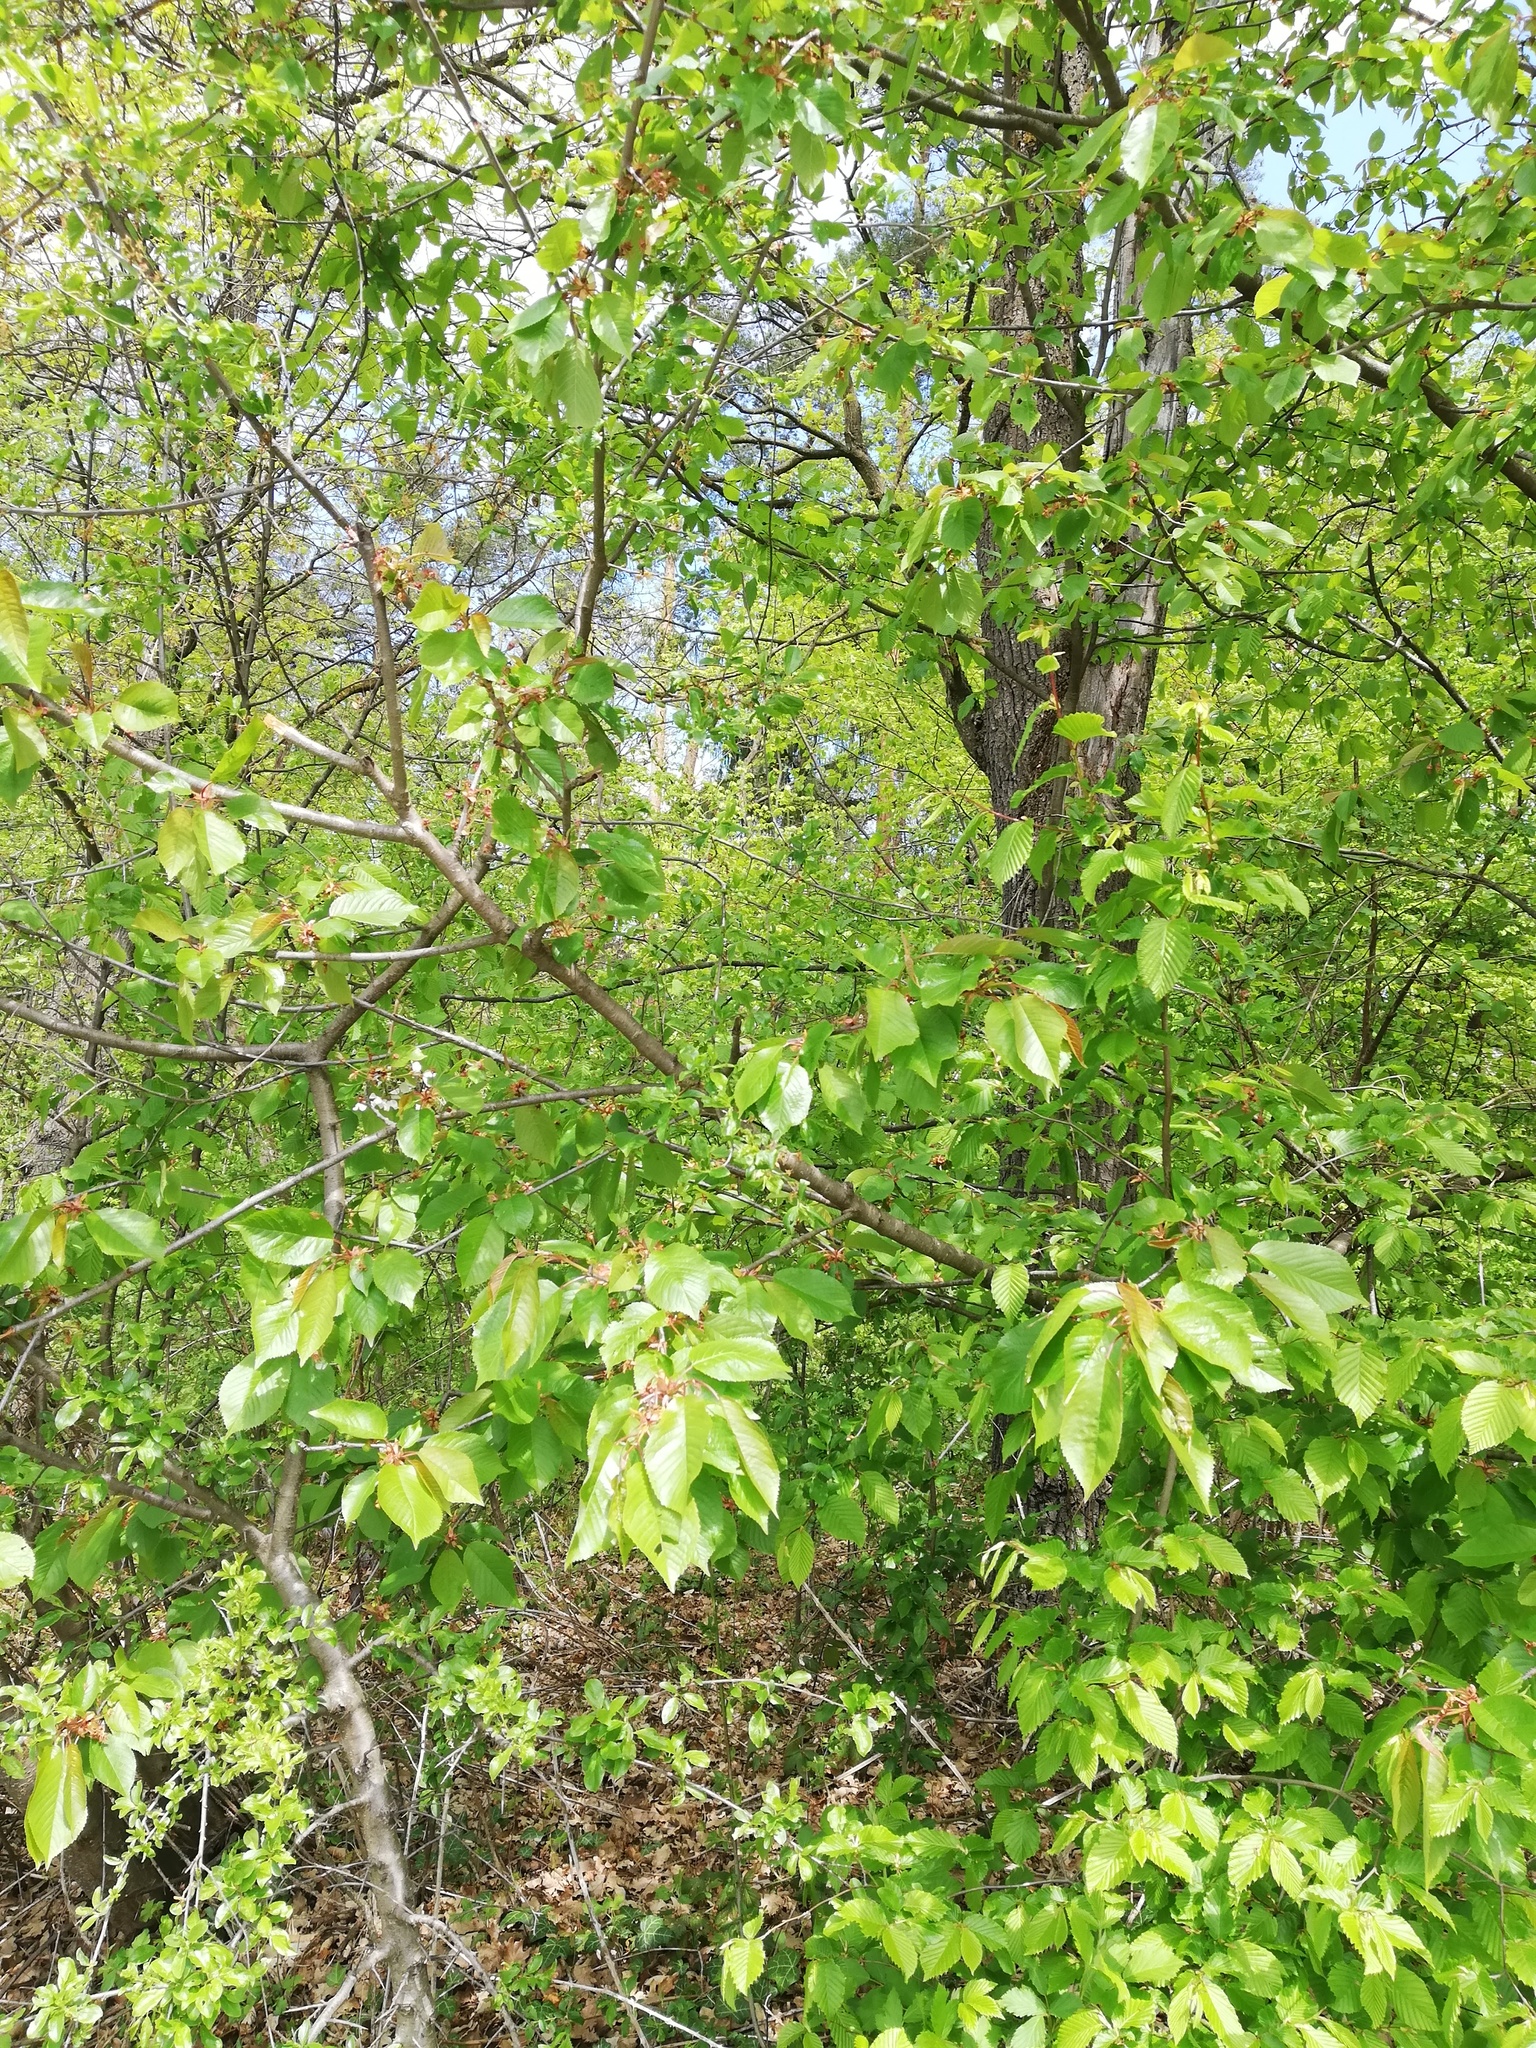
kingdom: Plantae
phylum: Tracheophyta
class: Magnoliopsida
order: Rosales
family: Rosaceae
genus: Prunus
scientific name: Prunus avium
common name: Sweet cherry
